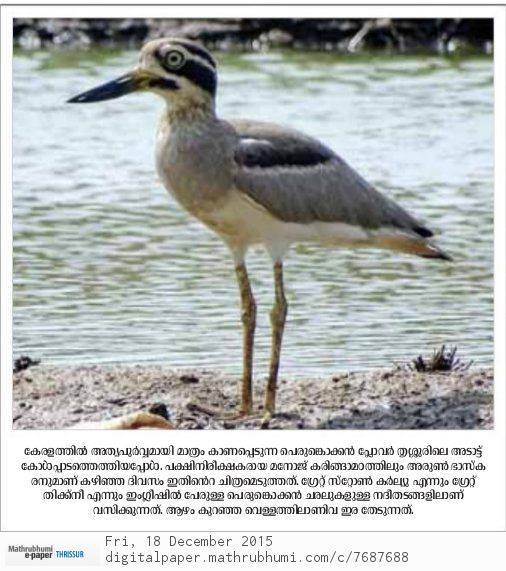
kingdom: Animalia
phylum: Chordata
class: Aves
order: Charadriiformes
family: Burhinidae
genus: Esacus
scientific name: Esacus recurvirostris
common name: Great stone-curlew
